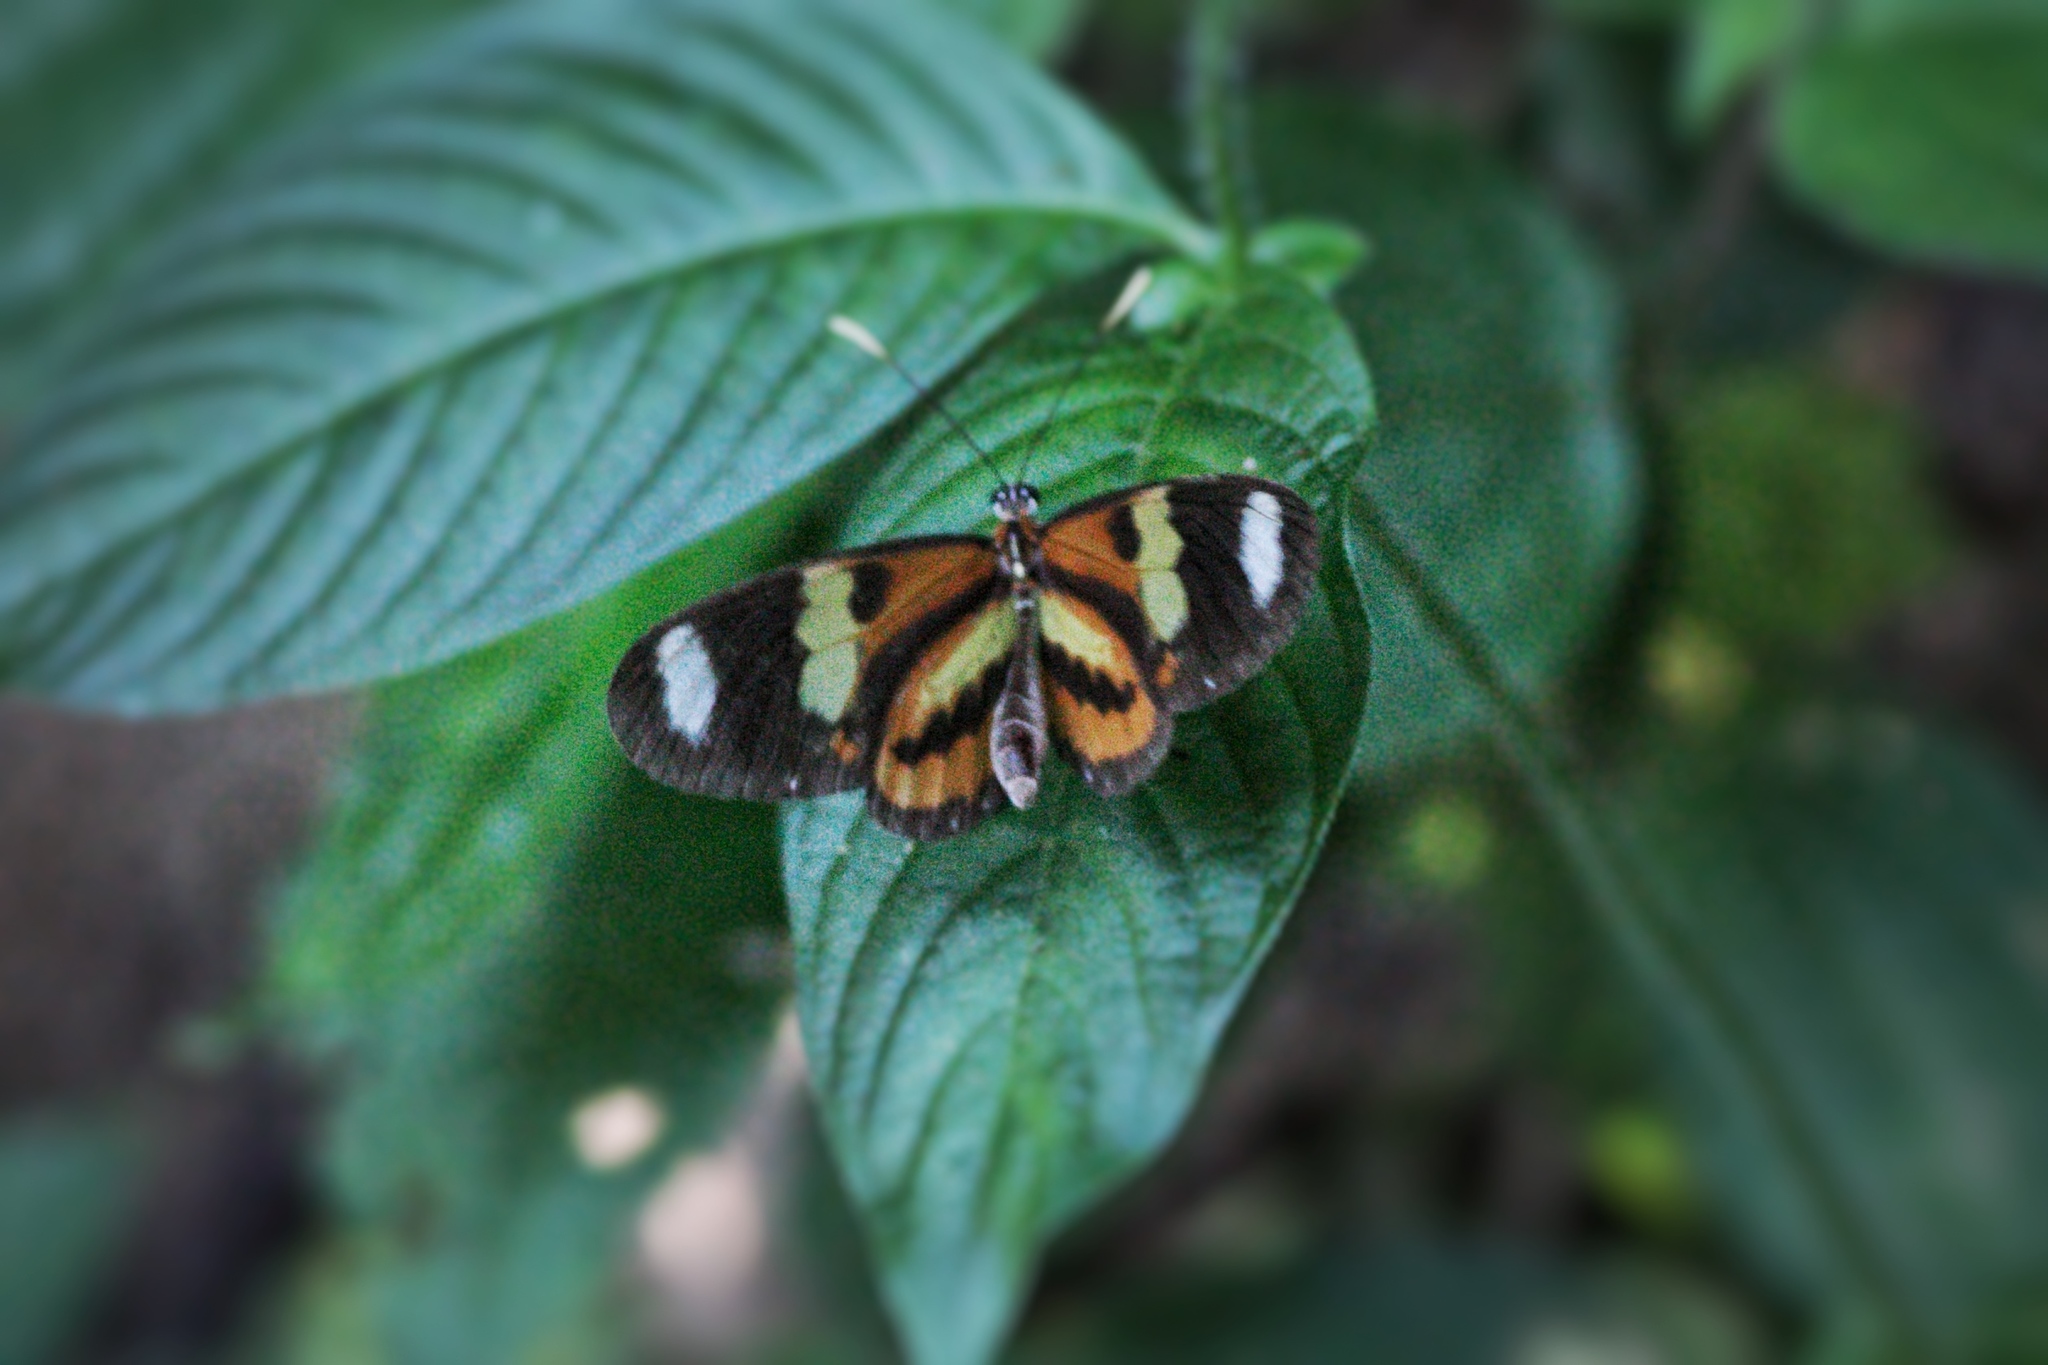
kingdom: Animalia
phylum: Arthropoda
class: Insecta
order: Lepidoptera
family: Nymphalidae
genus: Heliconius
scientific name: Heliconius ethilla
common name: Ethilia longwing
